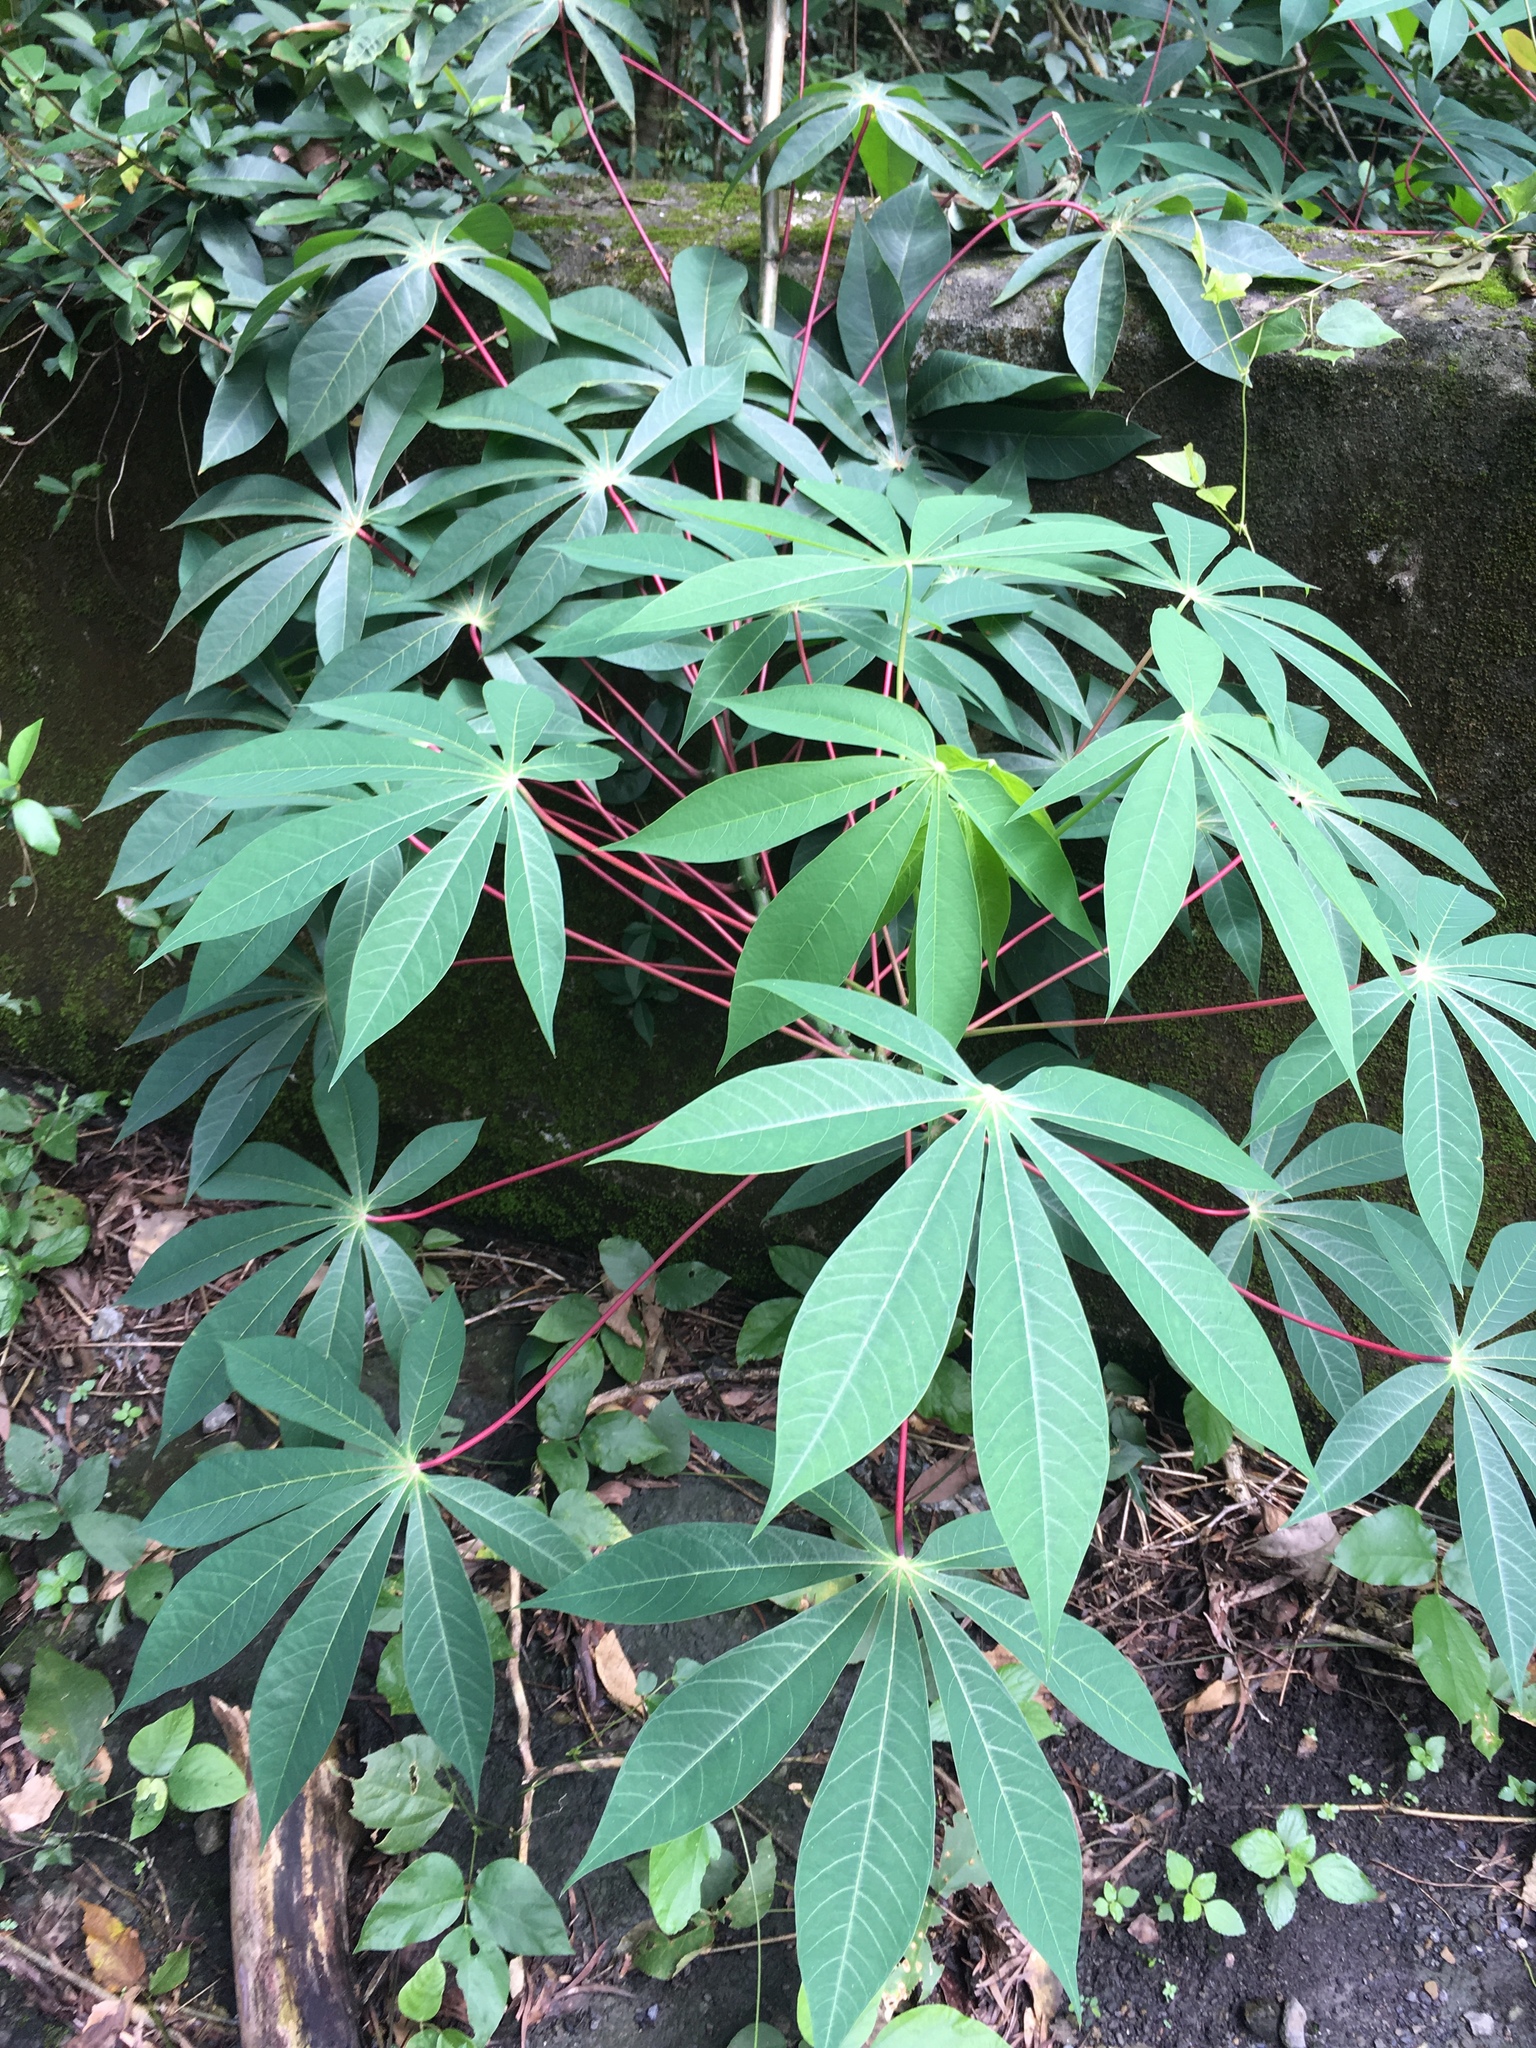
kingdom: Plantae
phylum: Tracheophyta
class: Magnoliopsida
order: Malpighiales
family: Euphorbiaceae
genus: Manihot
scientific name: Manihot esculenta
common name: Cassava
